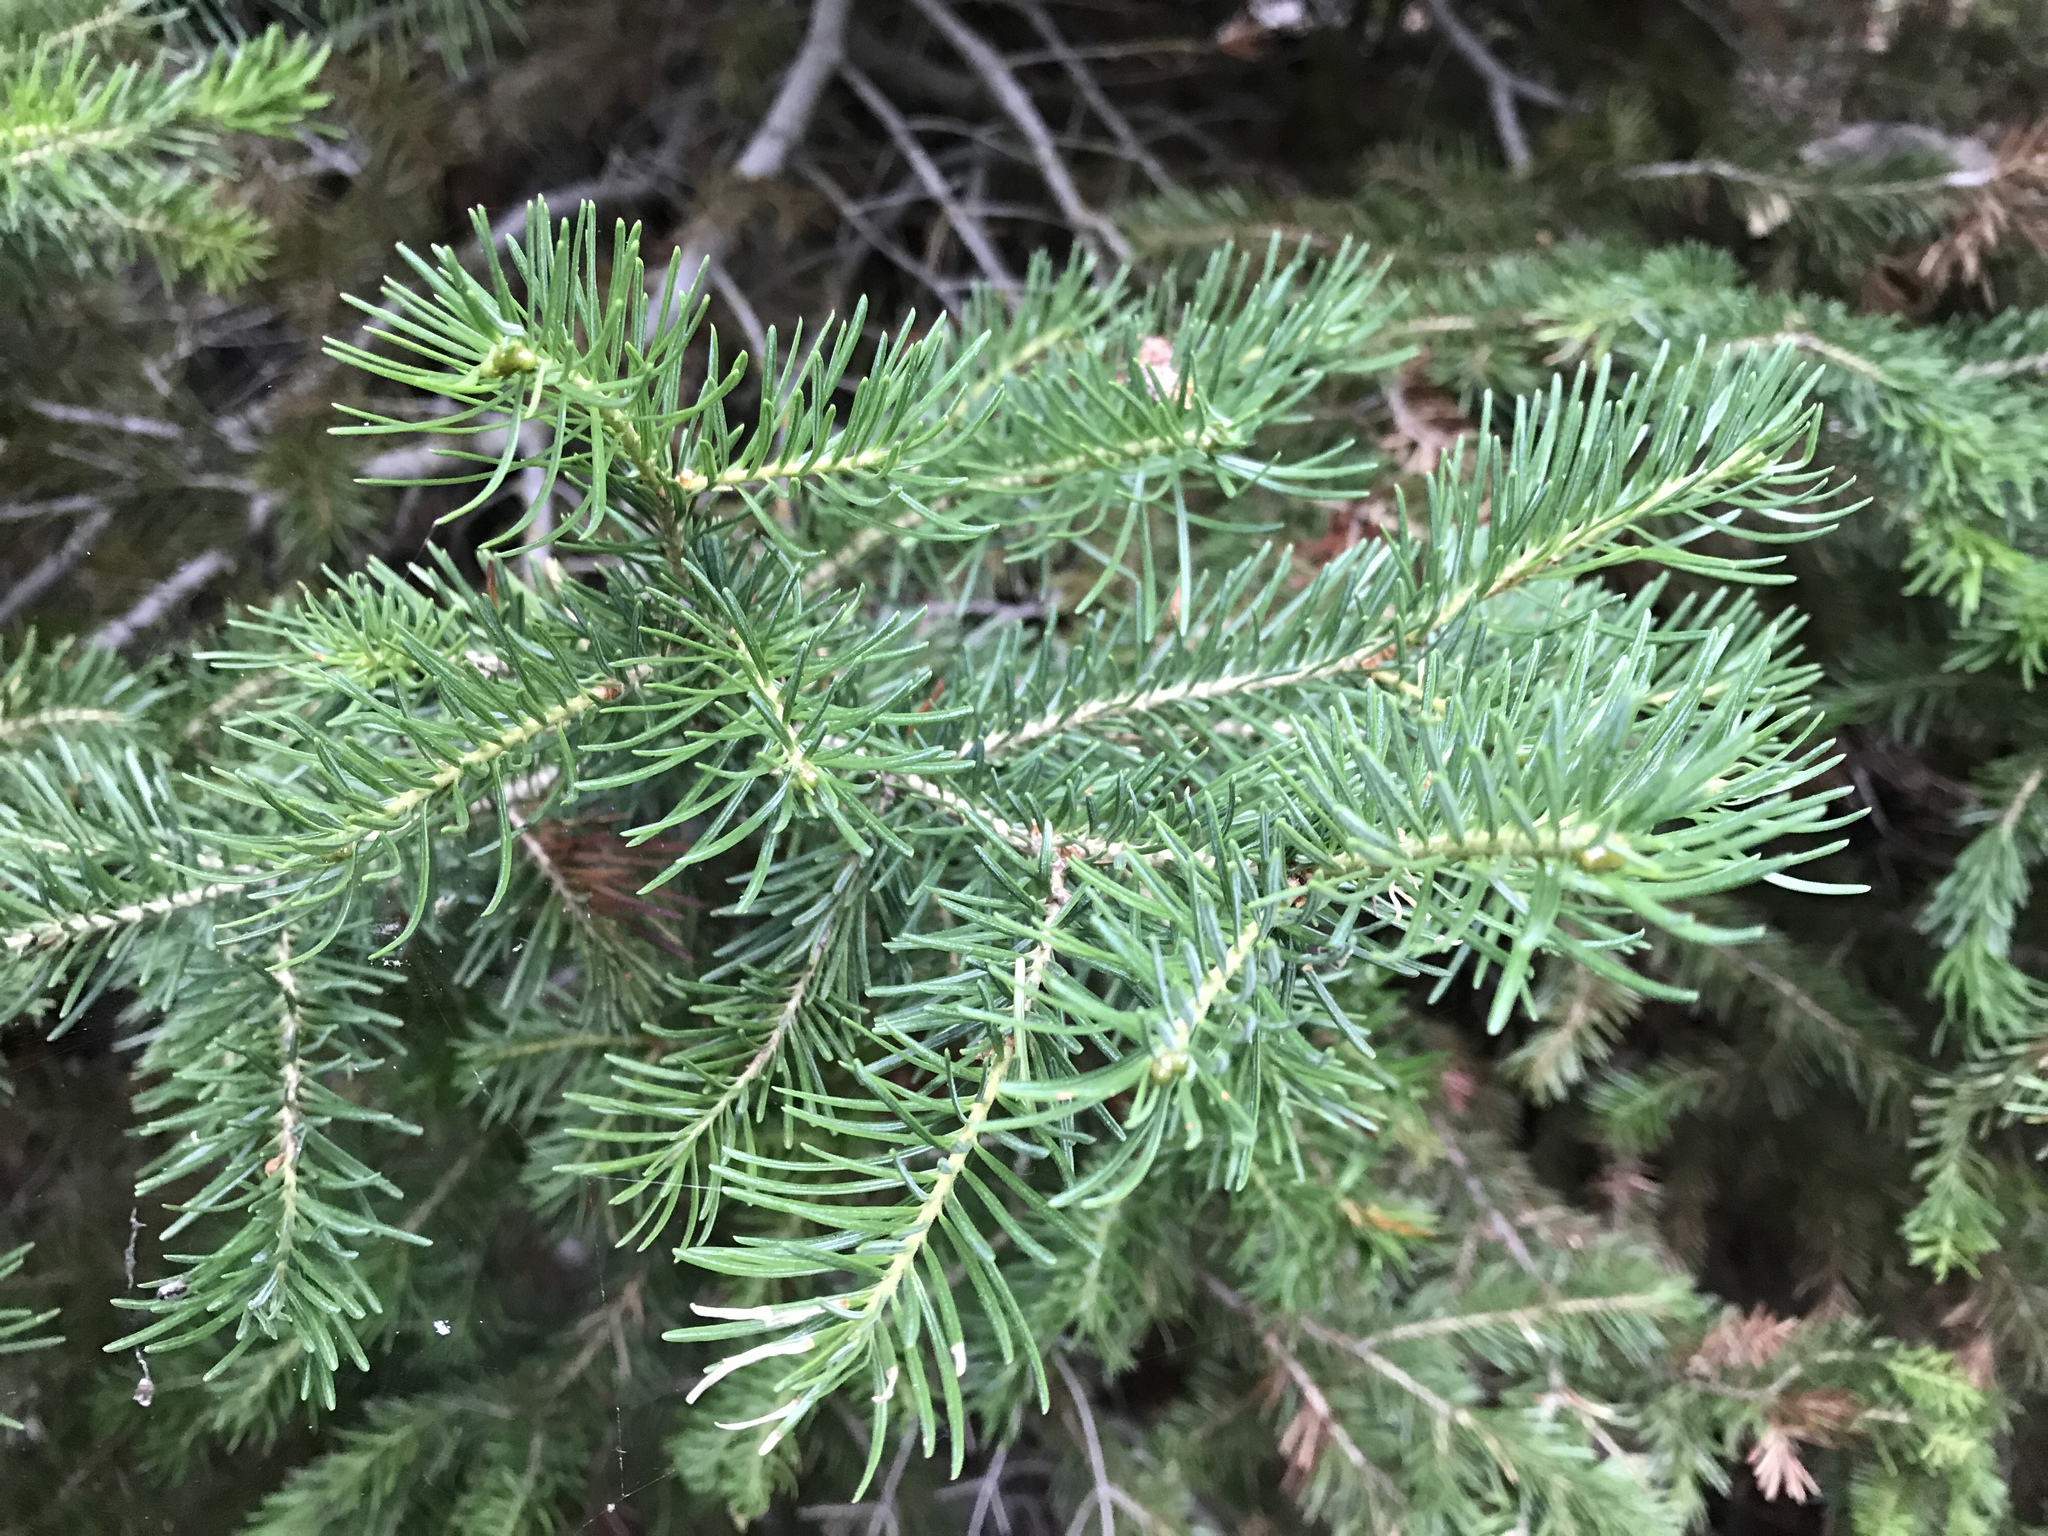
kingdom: Plantae
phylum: Tracheophyta
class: Pinopsida
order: Pinales
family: Pinaceae
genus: Picea
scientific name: Picea engelmannii
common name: Engelmann spruce
